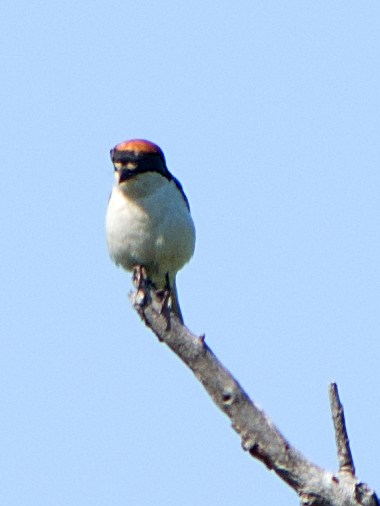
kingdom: Animalia
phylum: Chordata
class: Aves
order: Passeriformes
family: Laniidae
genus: Lanius
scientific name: Lanius senator
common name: Woodchat shrike
